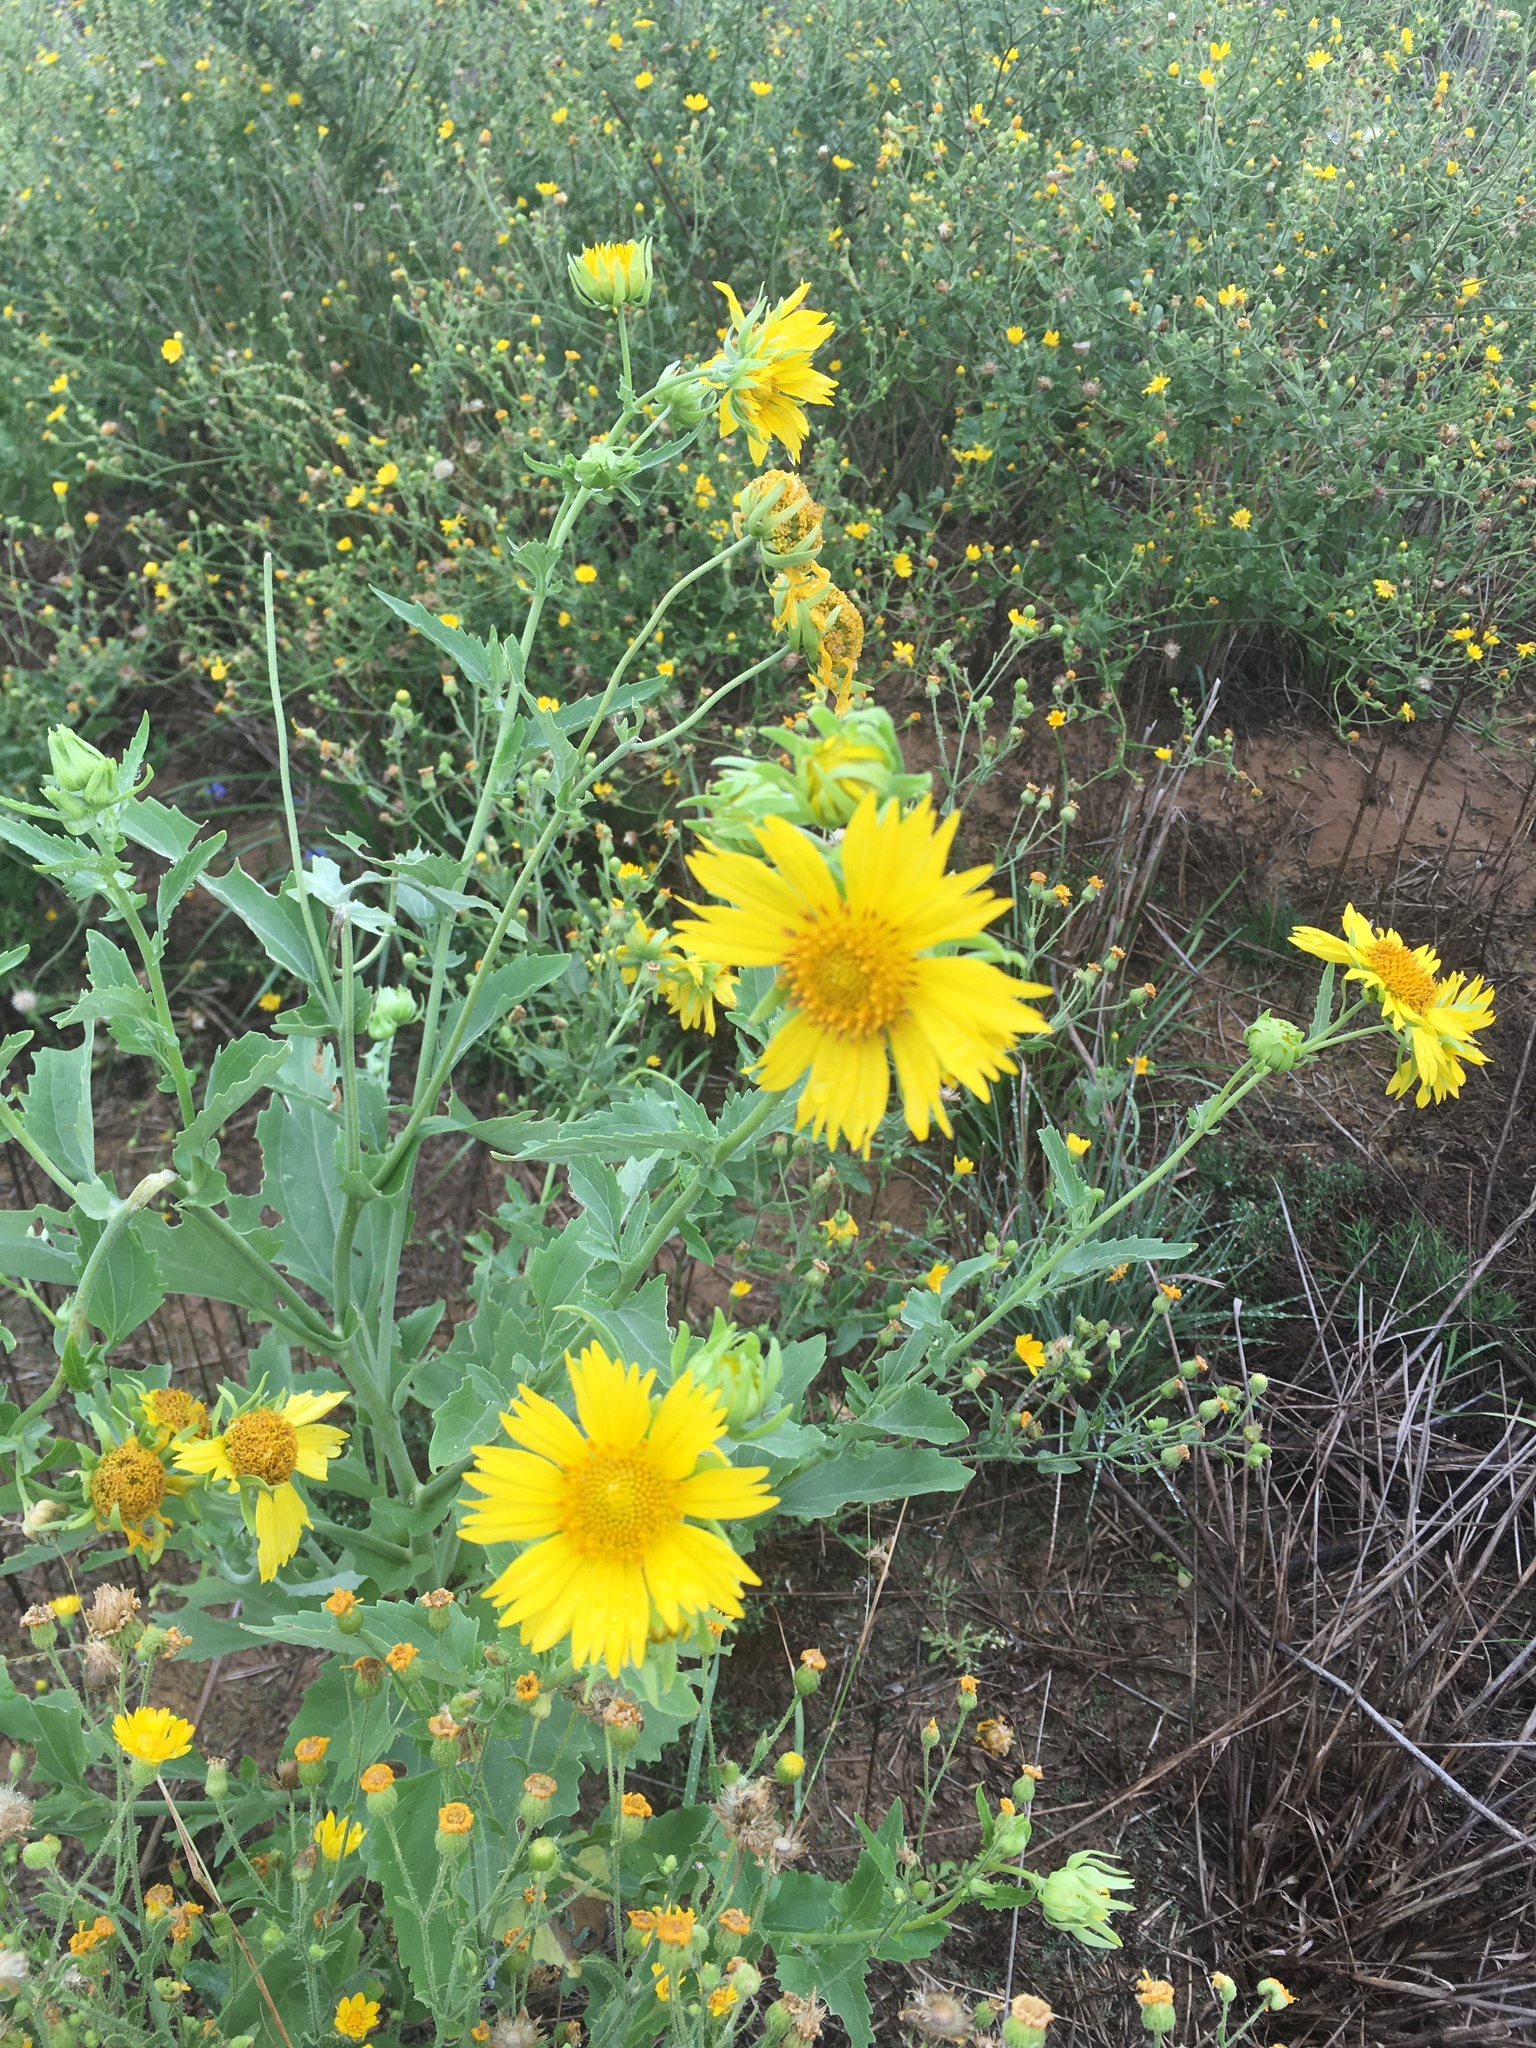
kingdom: Plantae
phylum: Tracheophyta
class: Magnoliopsida
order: Asterales
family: Asteraceae
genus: Verbesina
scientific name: Verbesina encelioides
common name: Golden crownbeard
